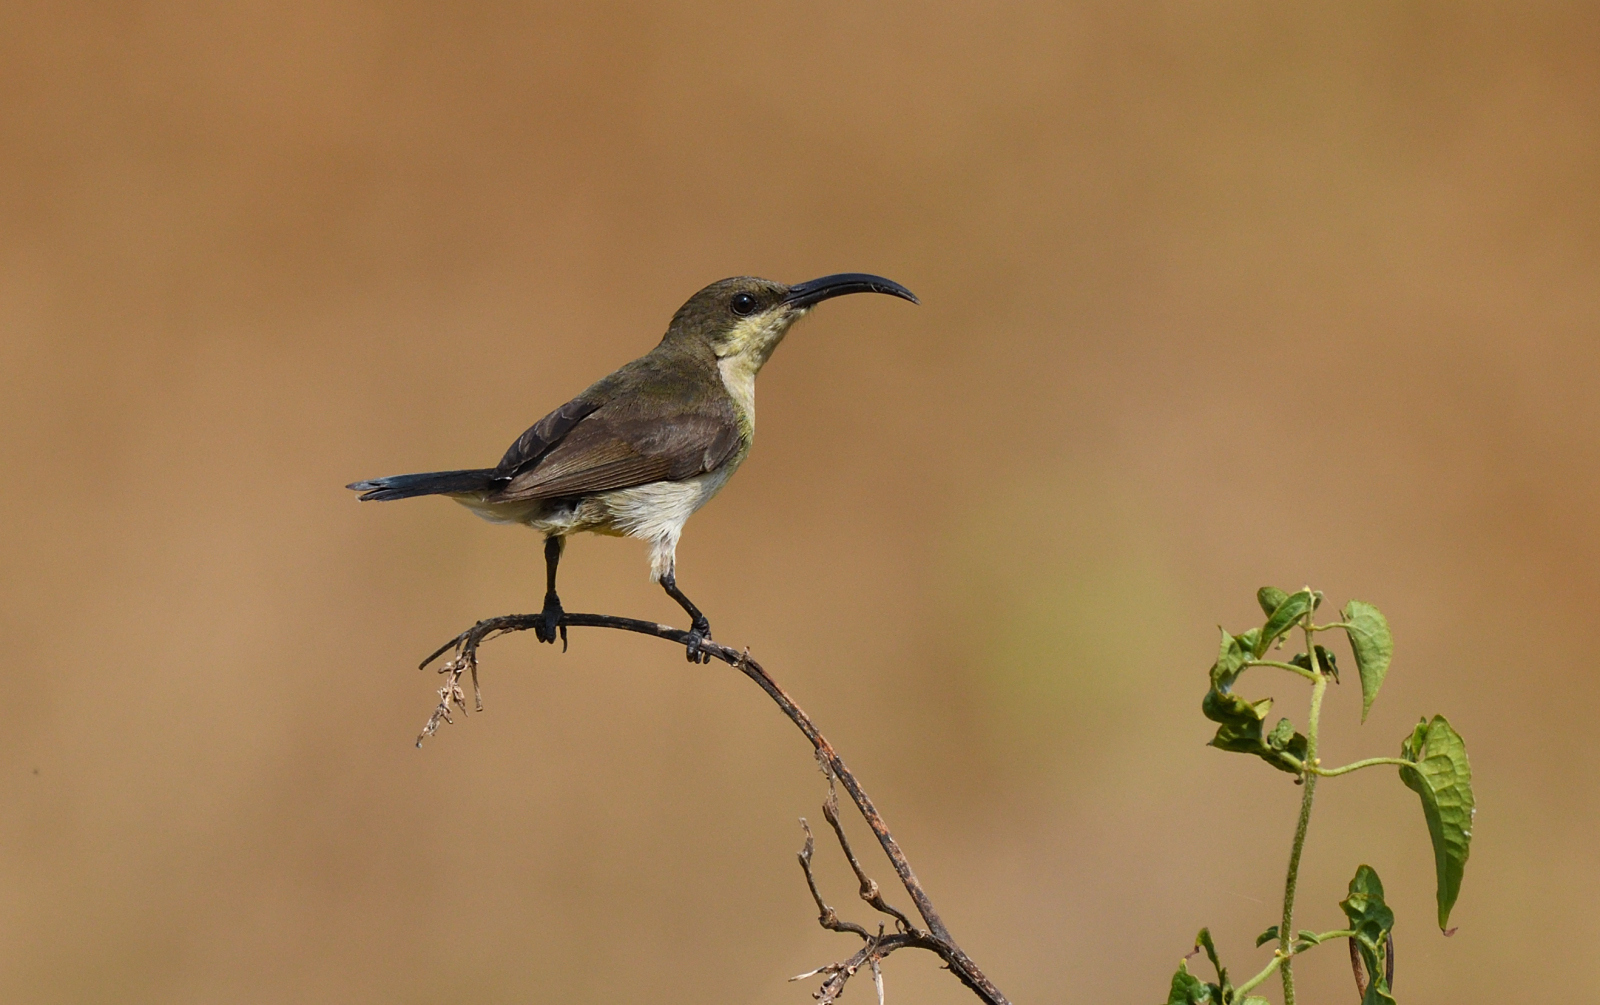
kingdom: Animalia
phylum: Chordata
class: Aves
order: Passeriformes
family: Nectariniidae
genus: Cinnyris
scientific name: Cinnyris lotenius
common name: Loten's sunbird
